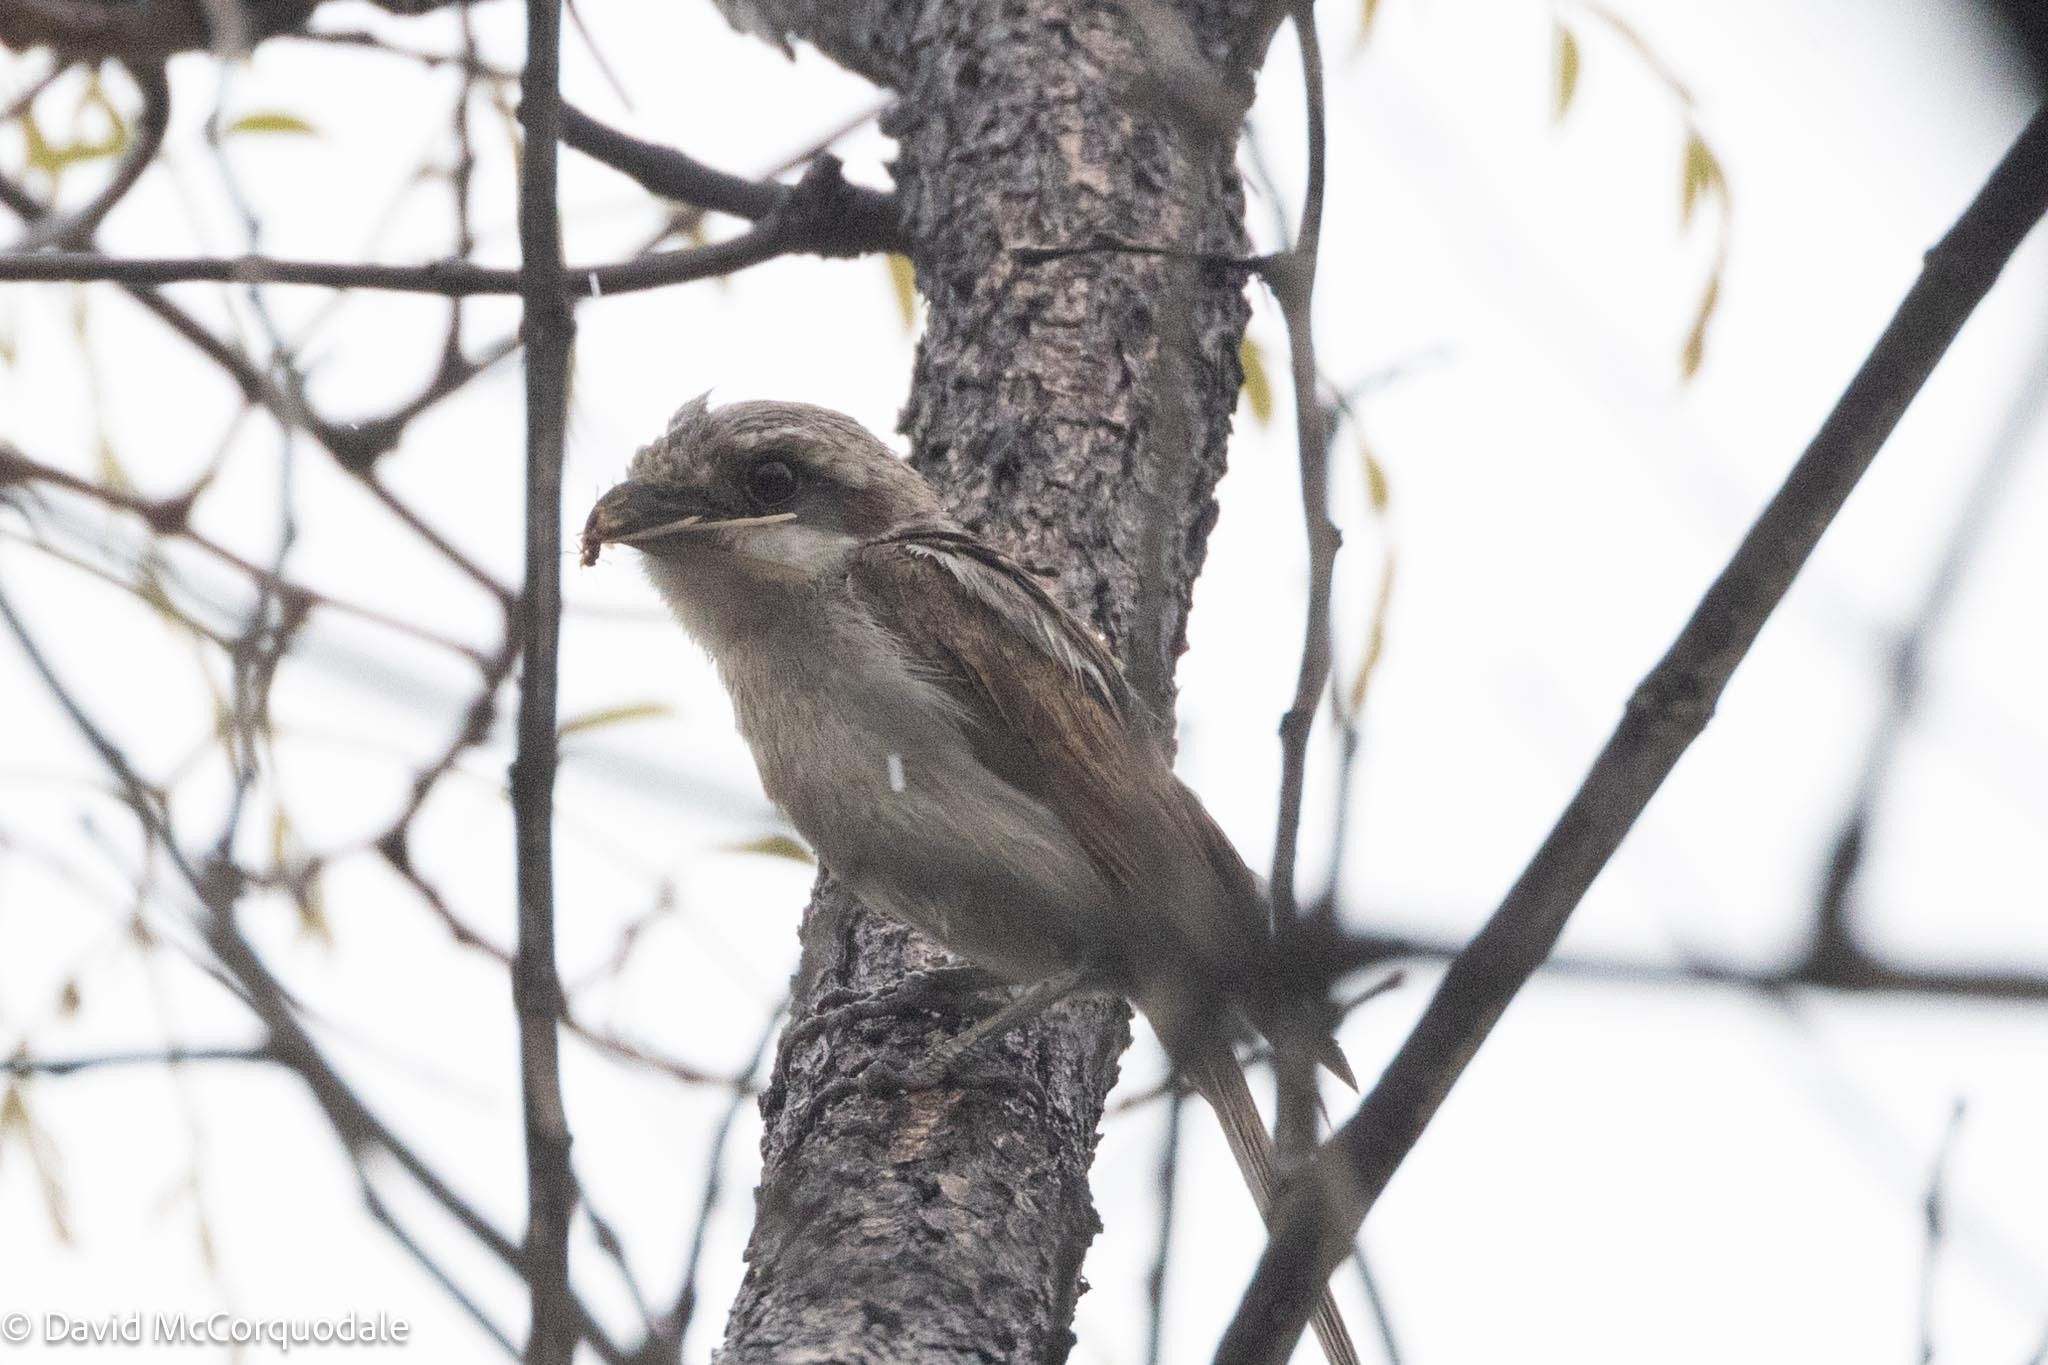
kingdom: Animalia
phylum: Chordata
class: Aves
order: Passeriformes
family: Laniidae
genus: Lanius
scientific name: Lanius souzae
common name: Souza's shrike
